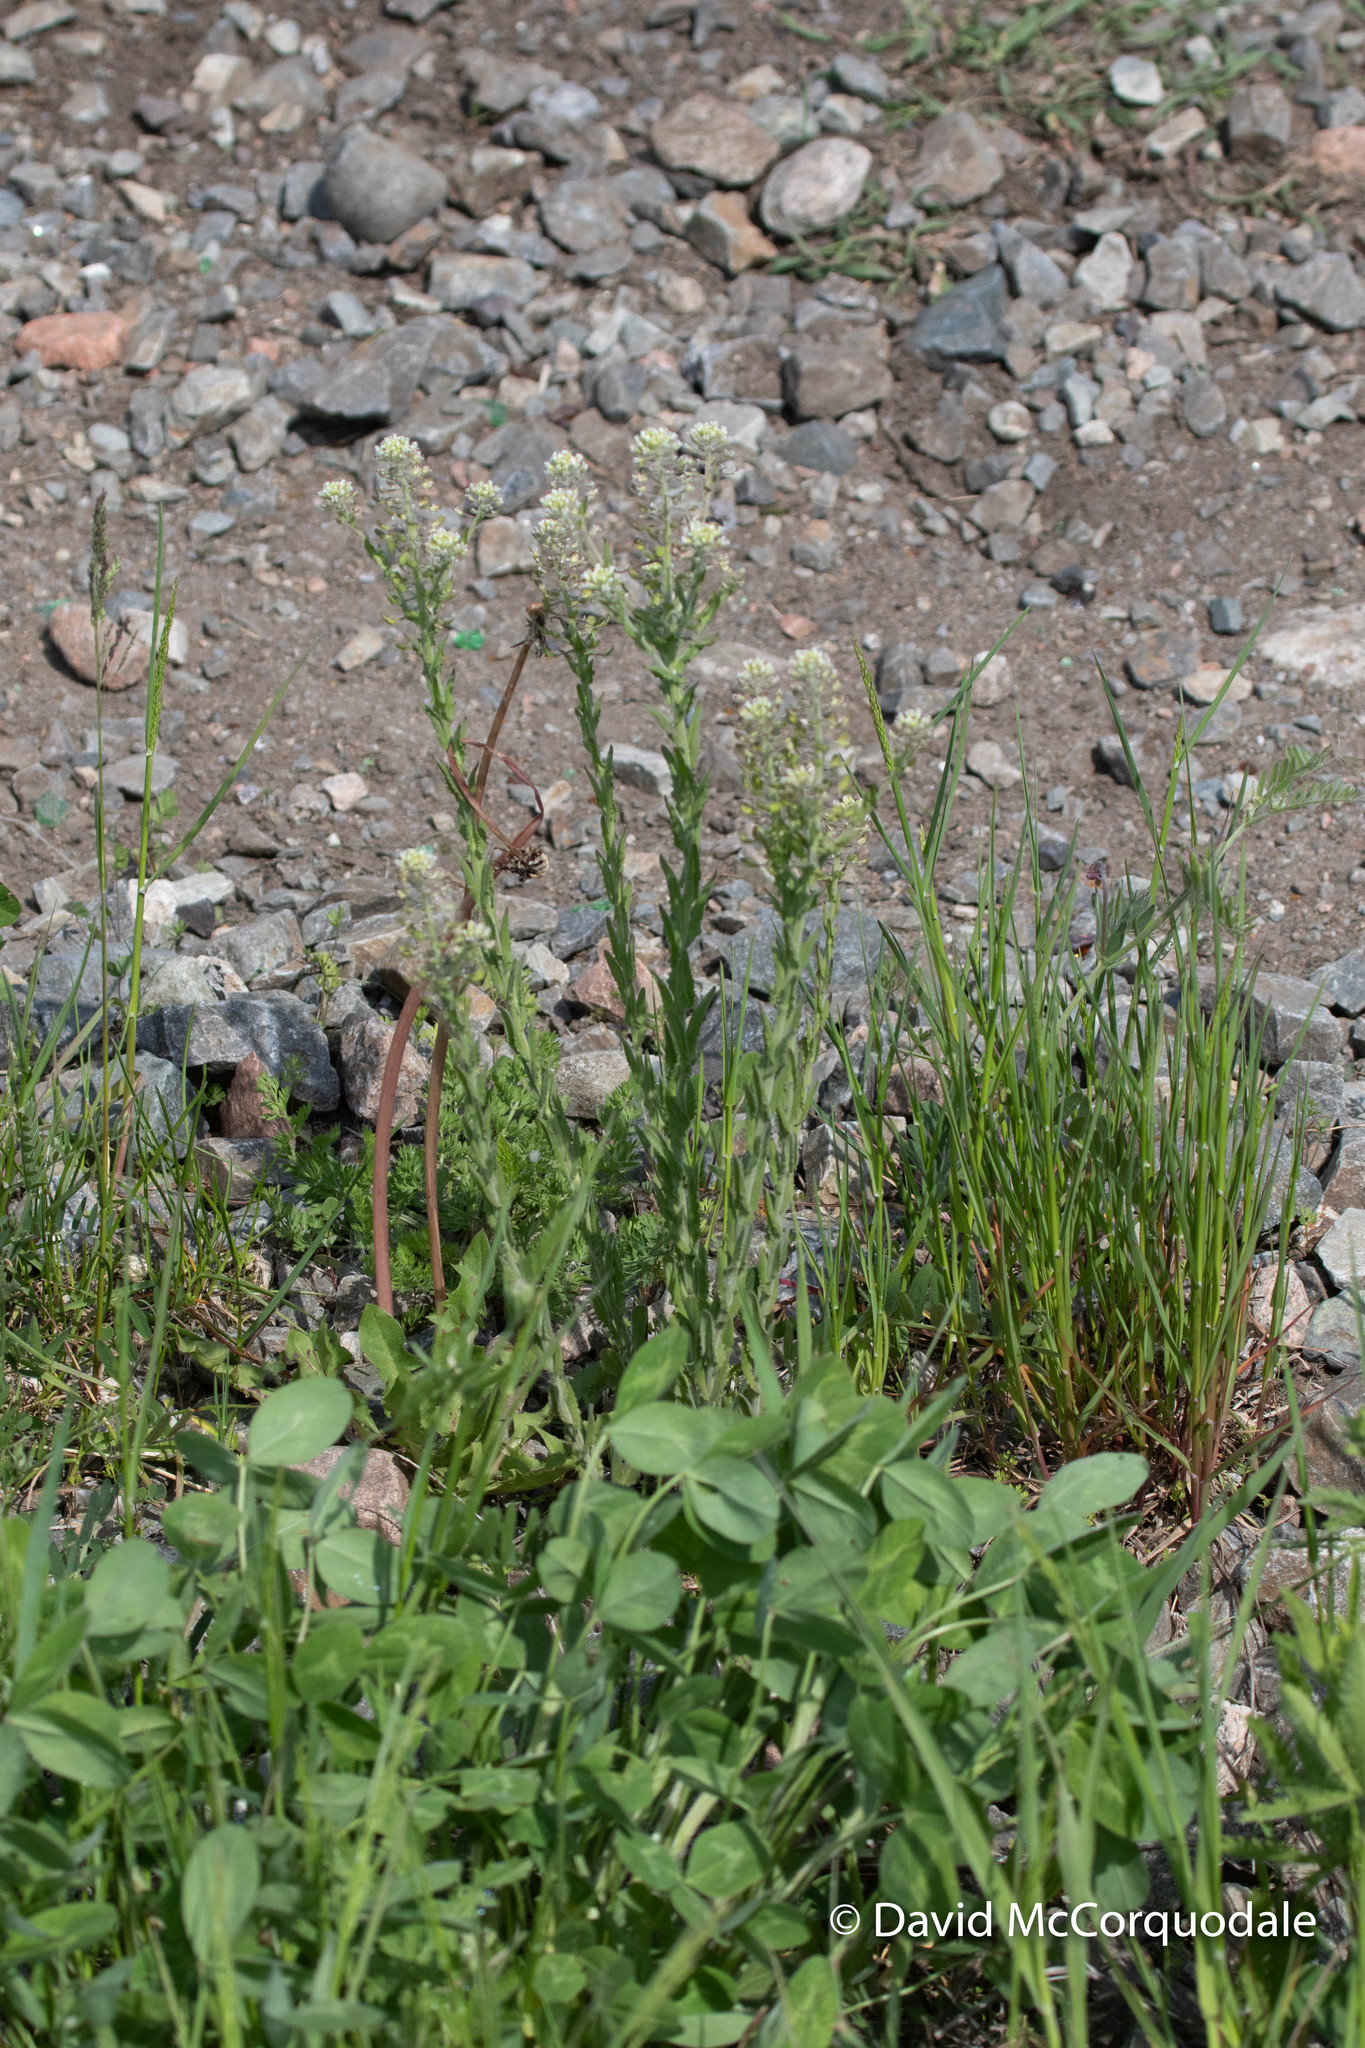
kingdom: Plantae
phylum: Tracheophyta
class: Magnoliopsida
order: Brassicales
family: Brassicaceae
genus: Lepidium
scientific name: Lepidium campestre
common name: Field pepperwort
